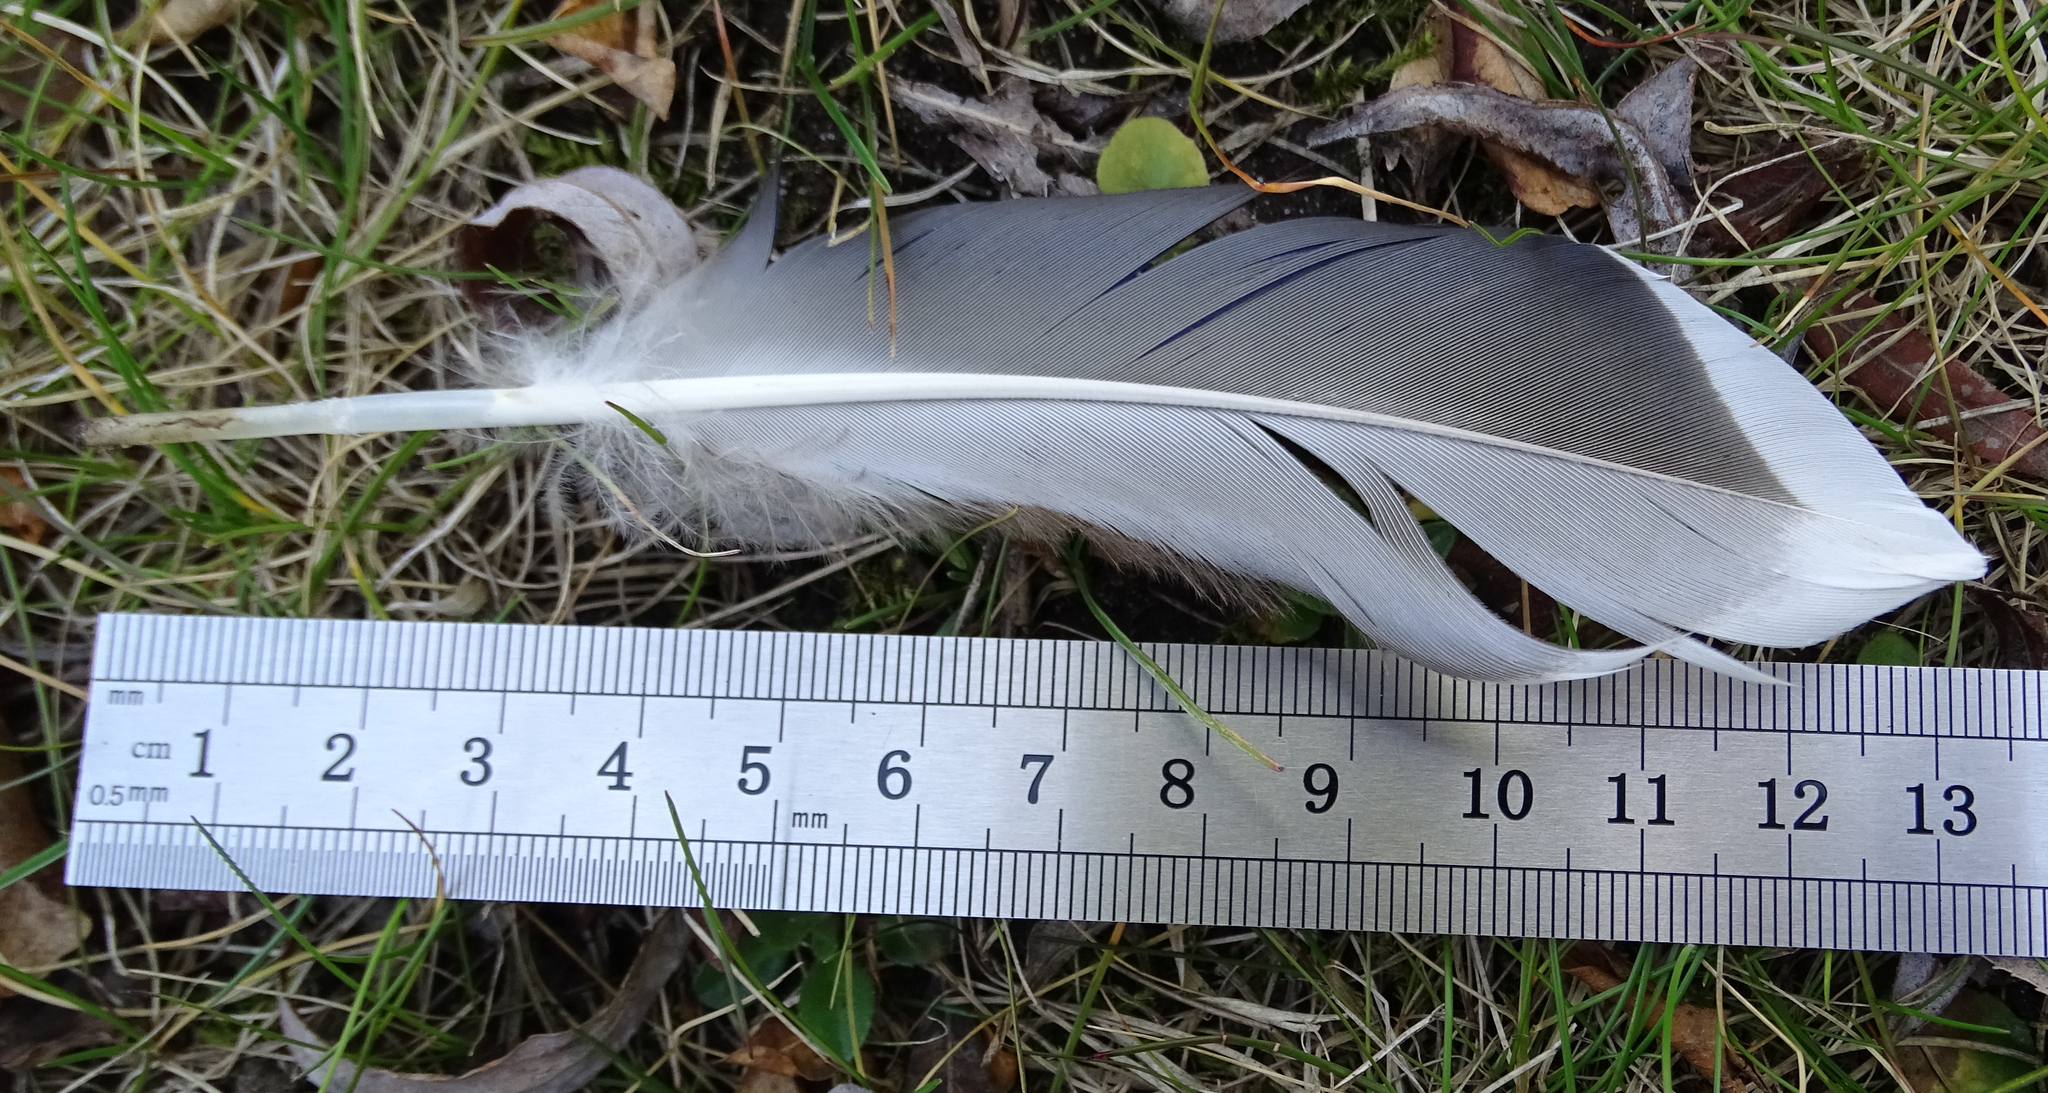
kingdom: Animalia
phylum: Chordata
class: Aves
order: Anseriformes
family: Anatidae
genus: Anas
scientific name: Anas platyrhynchos
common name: Mallard
